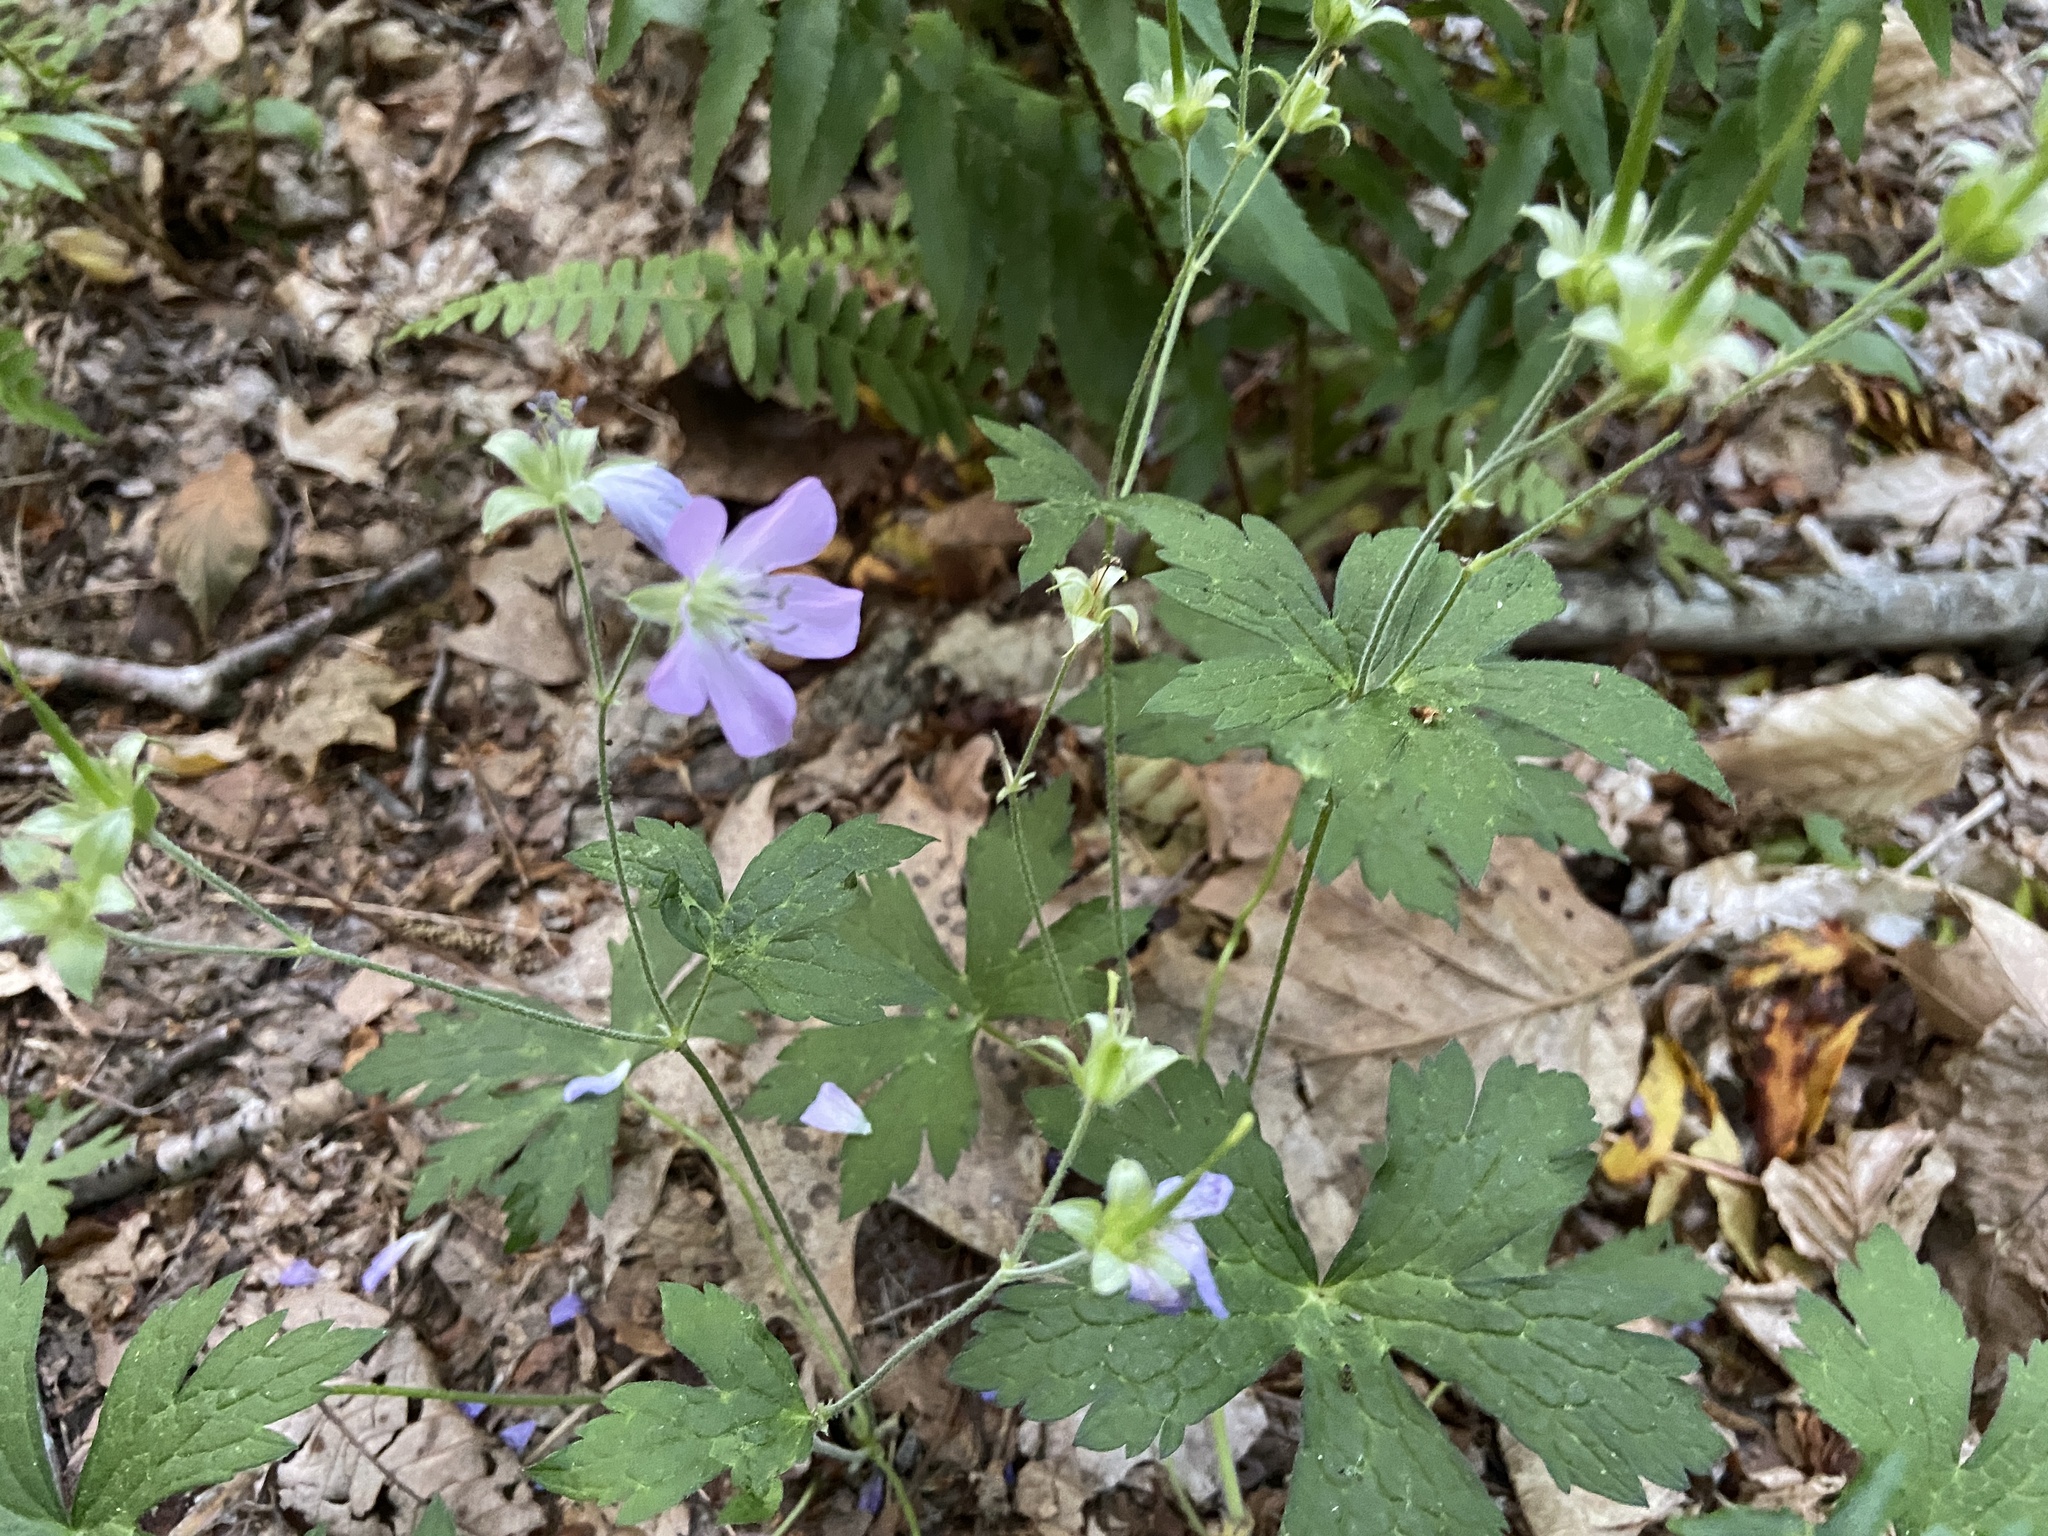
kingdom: Plantae
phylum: Tracheophyta
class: Magnoliopsida
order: Geraniales
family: Geraniaceae
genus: Geranium
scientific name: Geranium maculatum
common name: Spotted geranium
